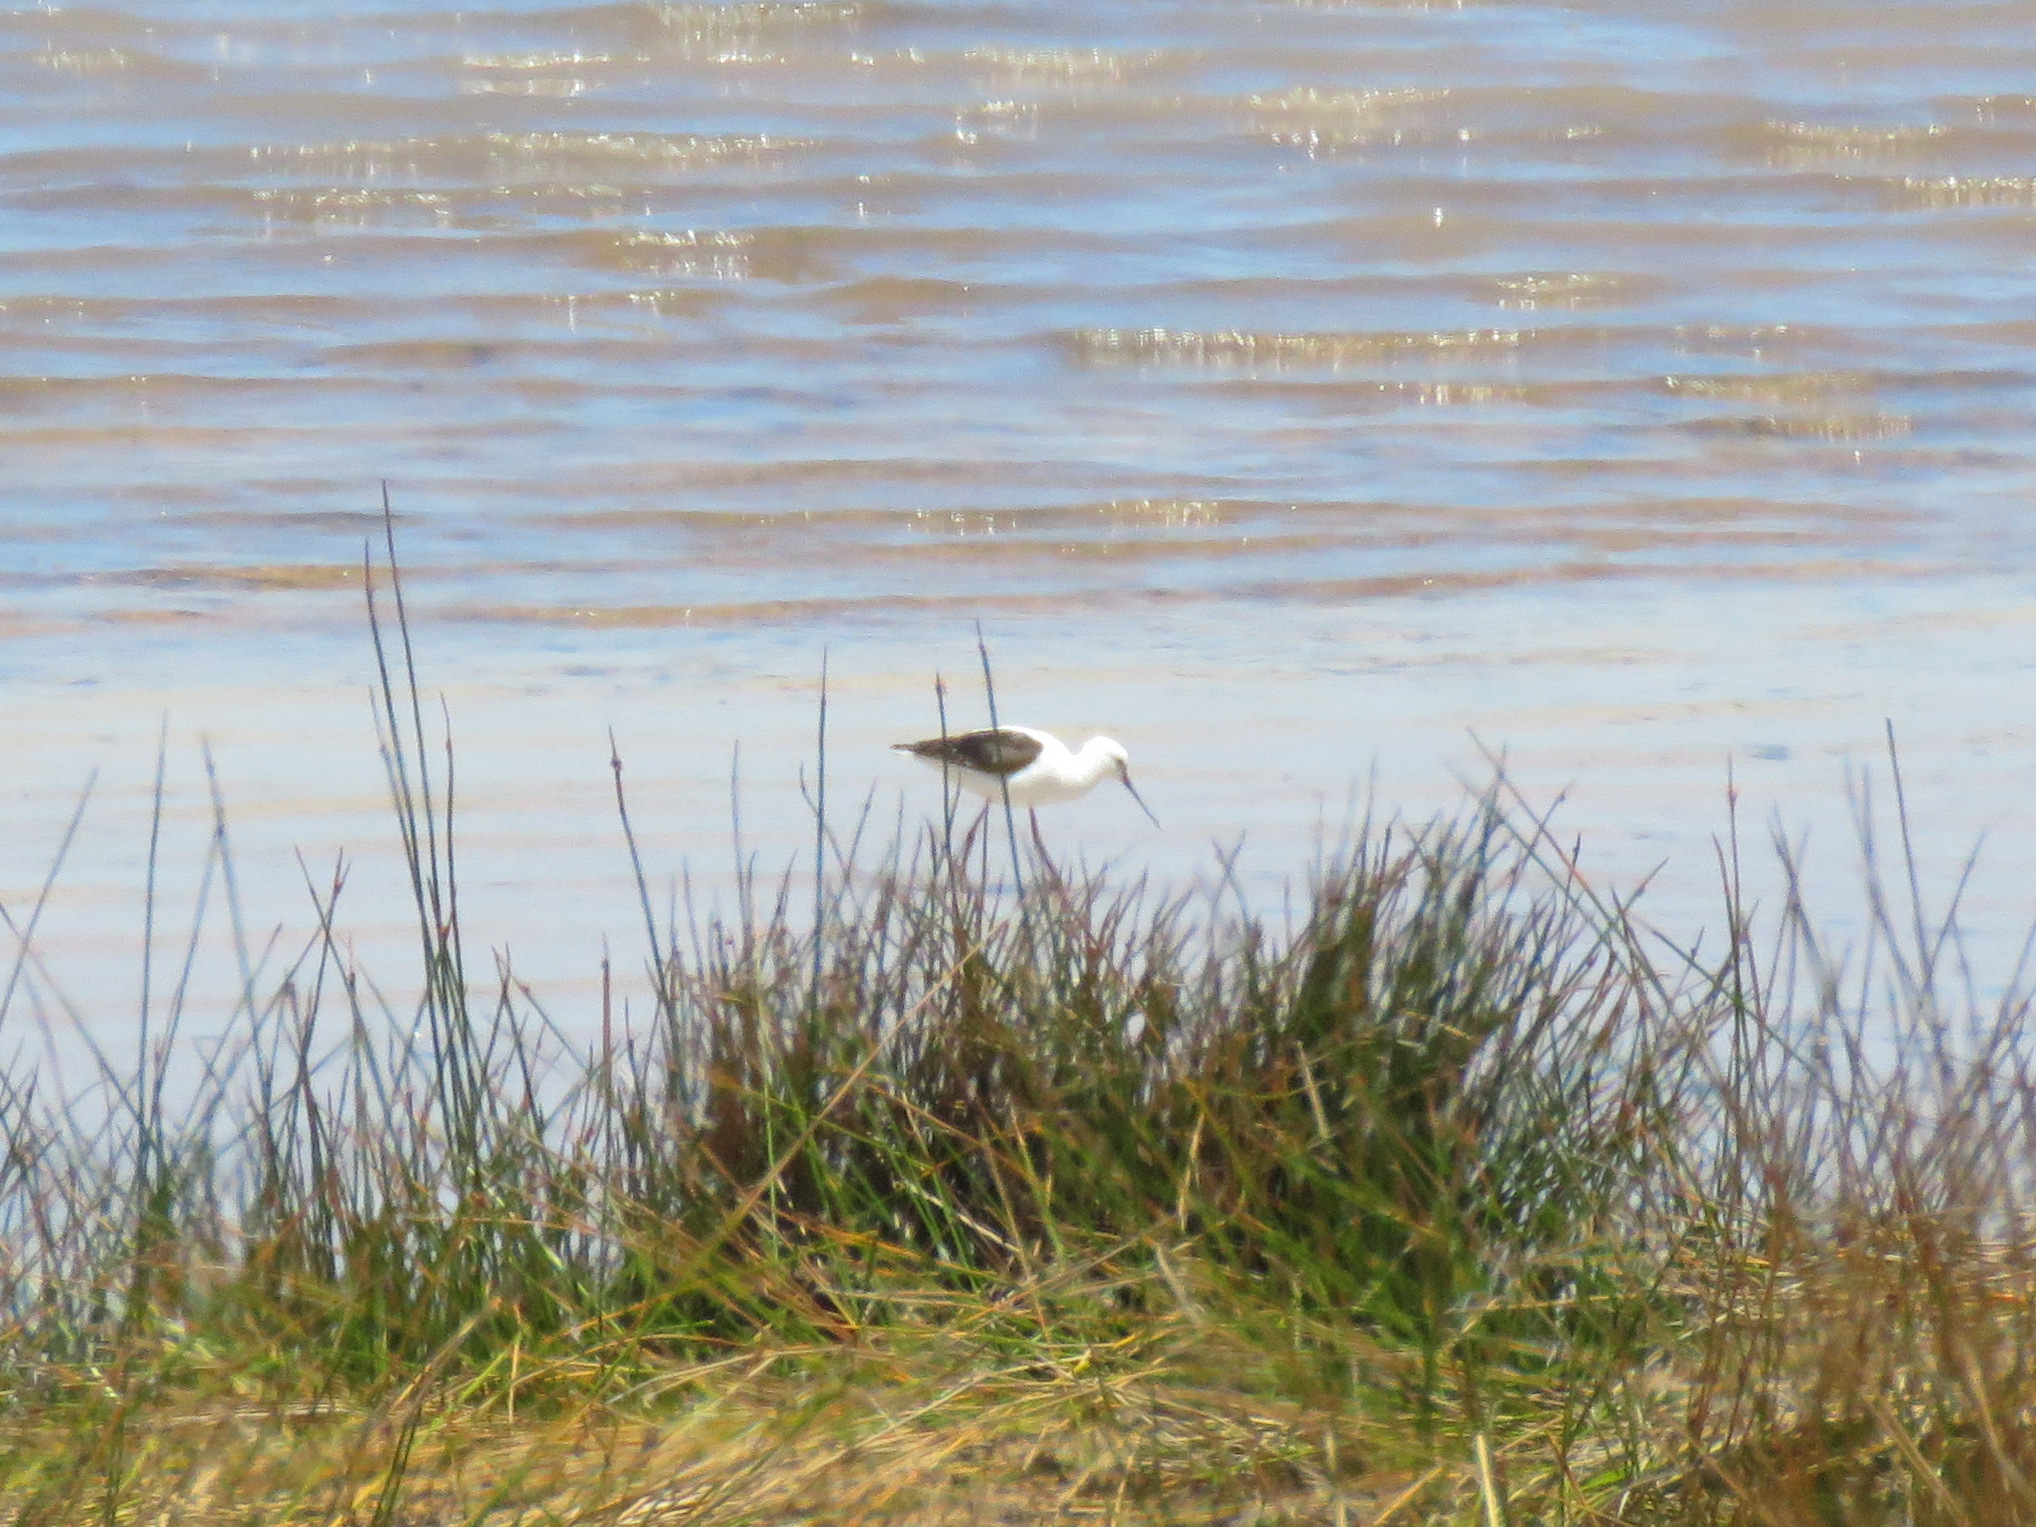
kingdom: Animalia
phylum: Chordata
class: Aves
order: Charadriiformes
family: Recurvirostridae
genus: Himantopus
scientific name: Himantopus leucocephalus
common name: White-headed stilt
